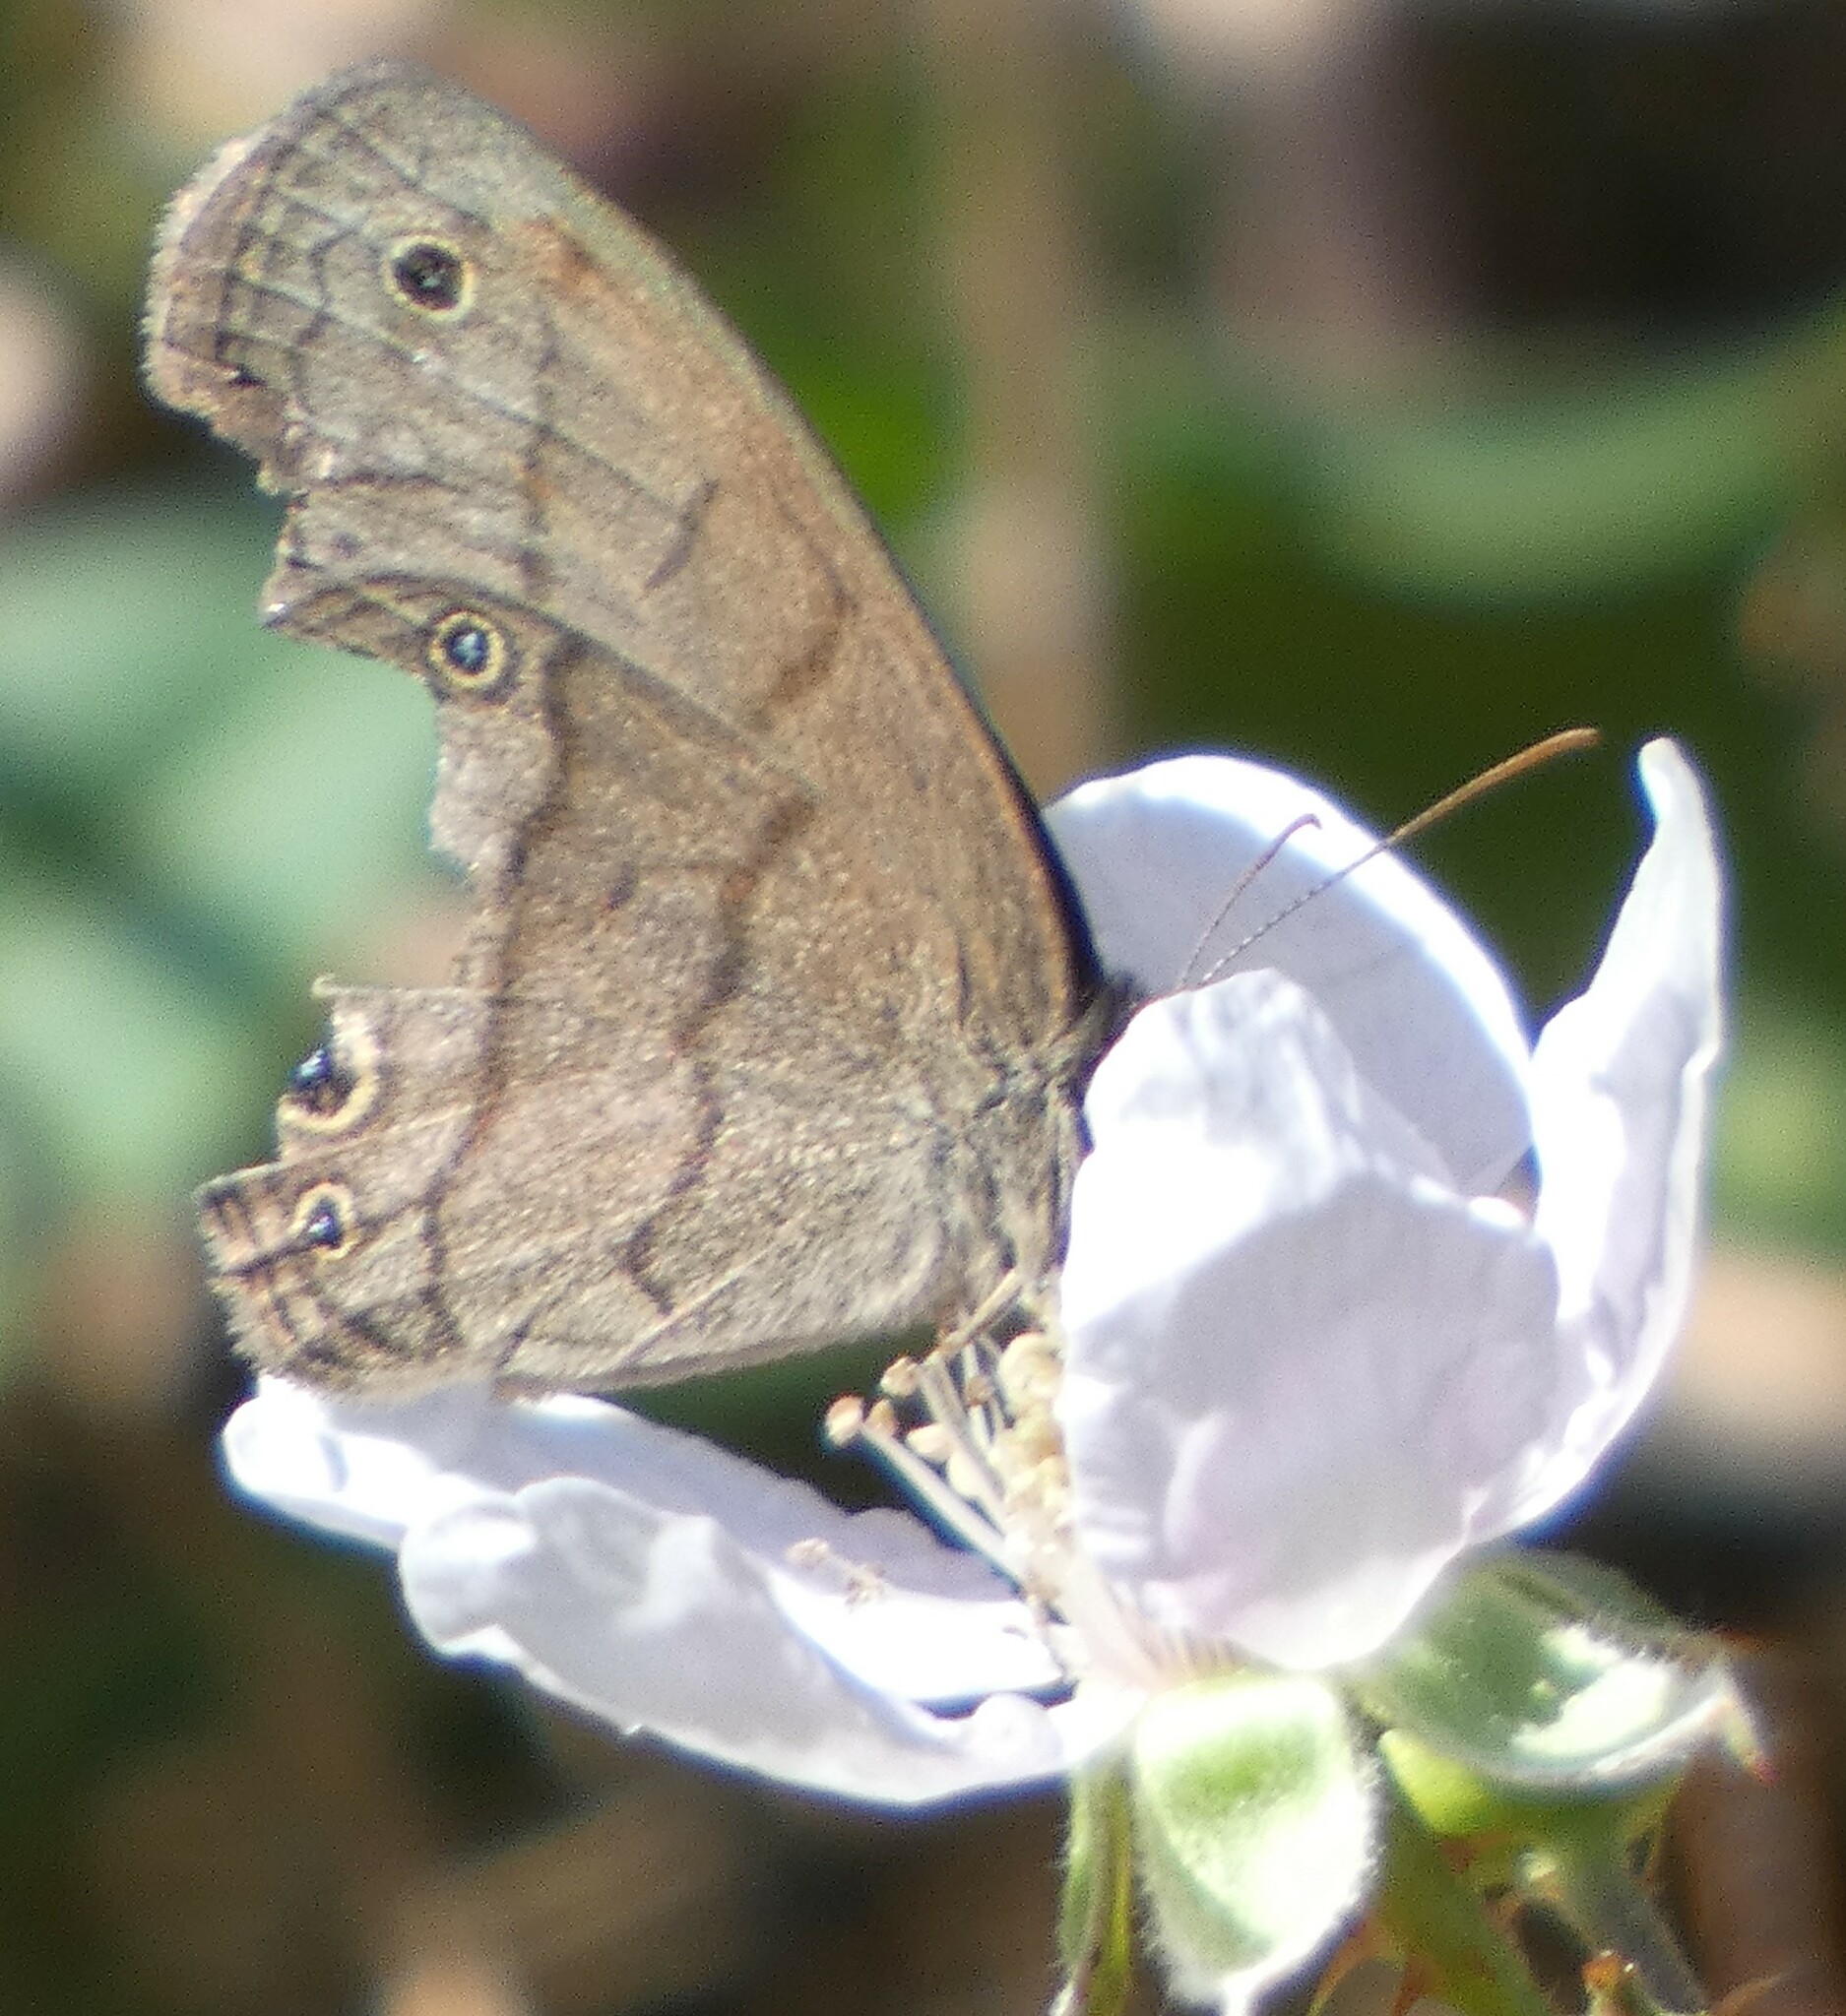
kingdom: Animalia
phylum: Arthropoda
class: Insecta
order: Lepidoptera
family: Nymphalidae
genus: Hermeuptychia
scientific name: Hermeuptychia hermes
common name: Hermes satyr
